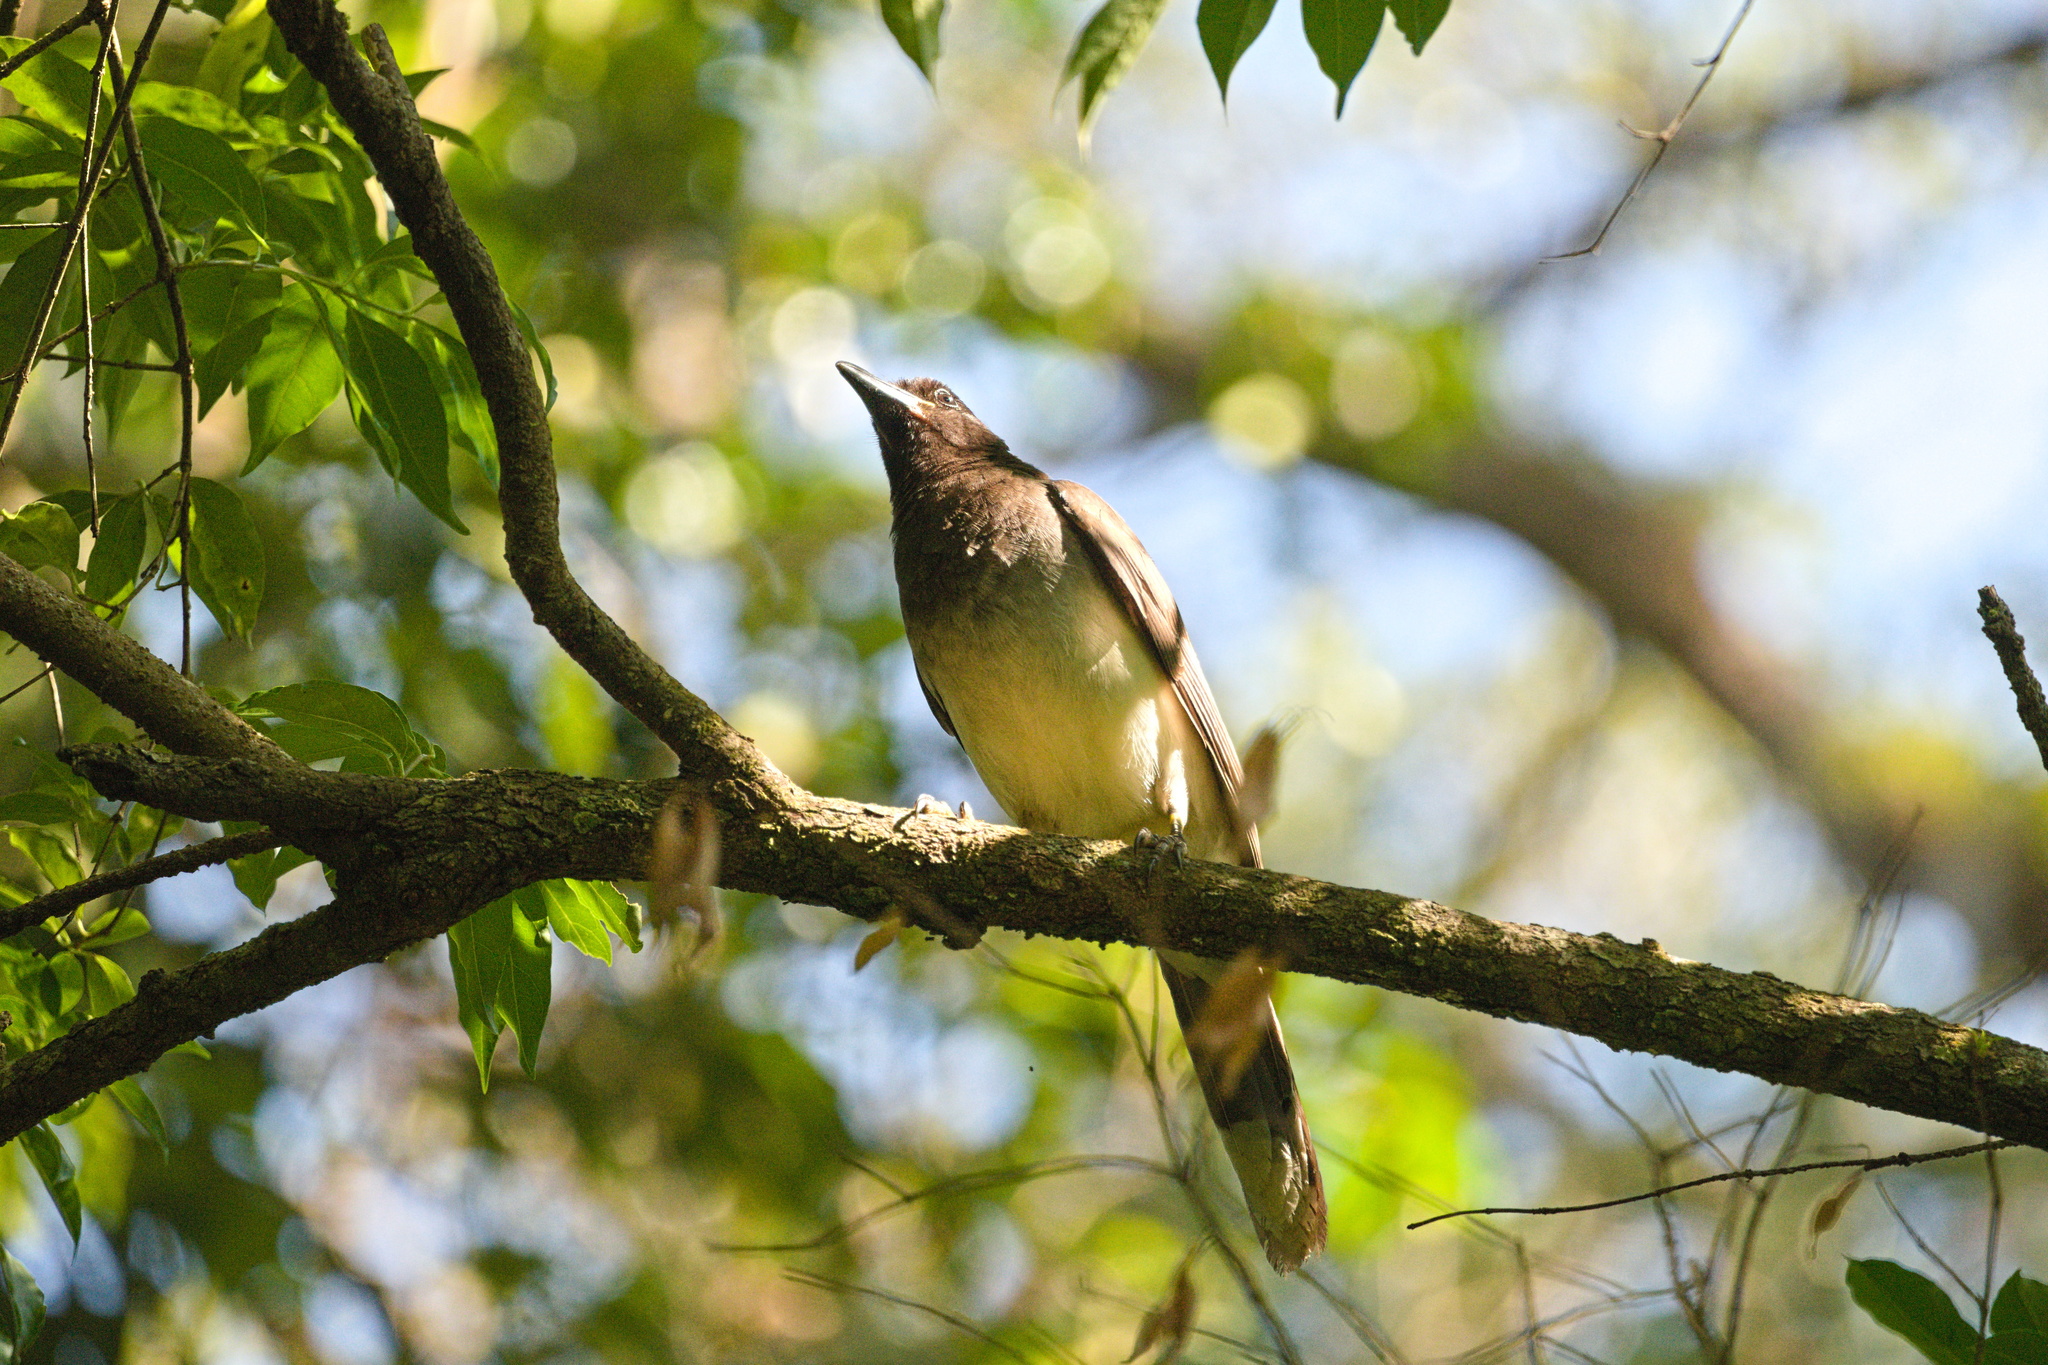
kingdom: Animalia
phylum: Chordata
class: Aves
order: Passeriformes
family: Corvidae
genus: Psilorhinus
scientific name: Psilorhinus morio
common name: Brown jay
